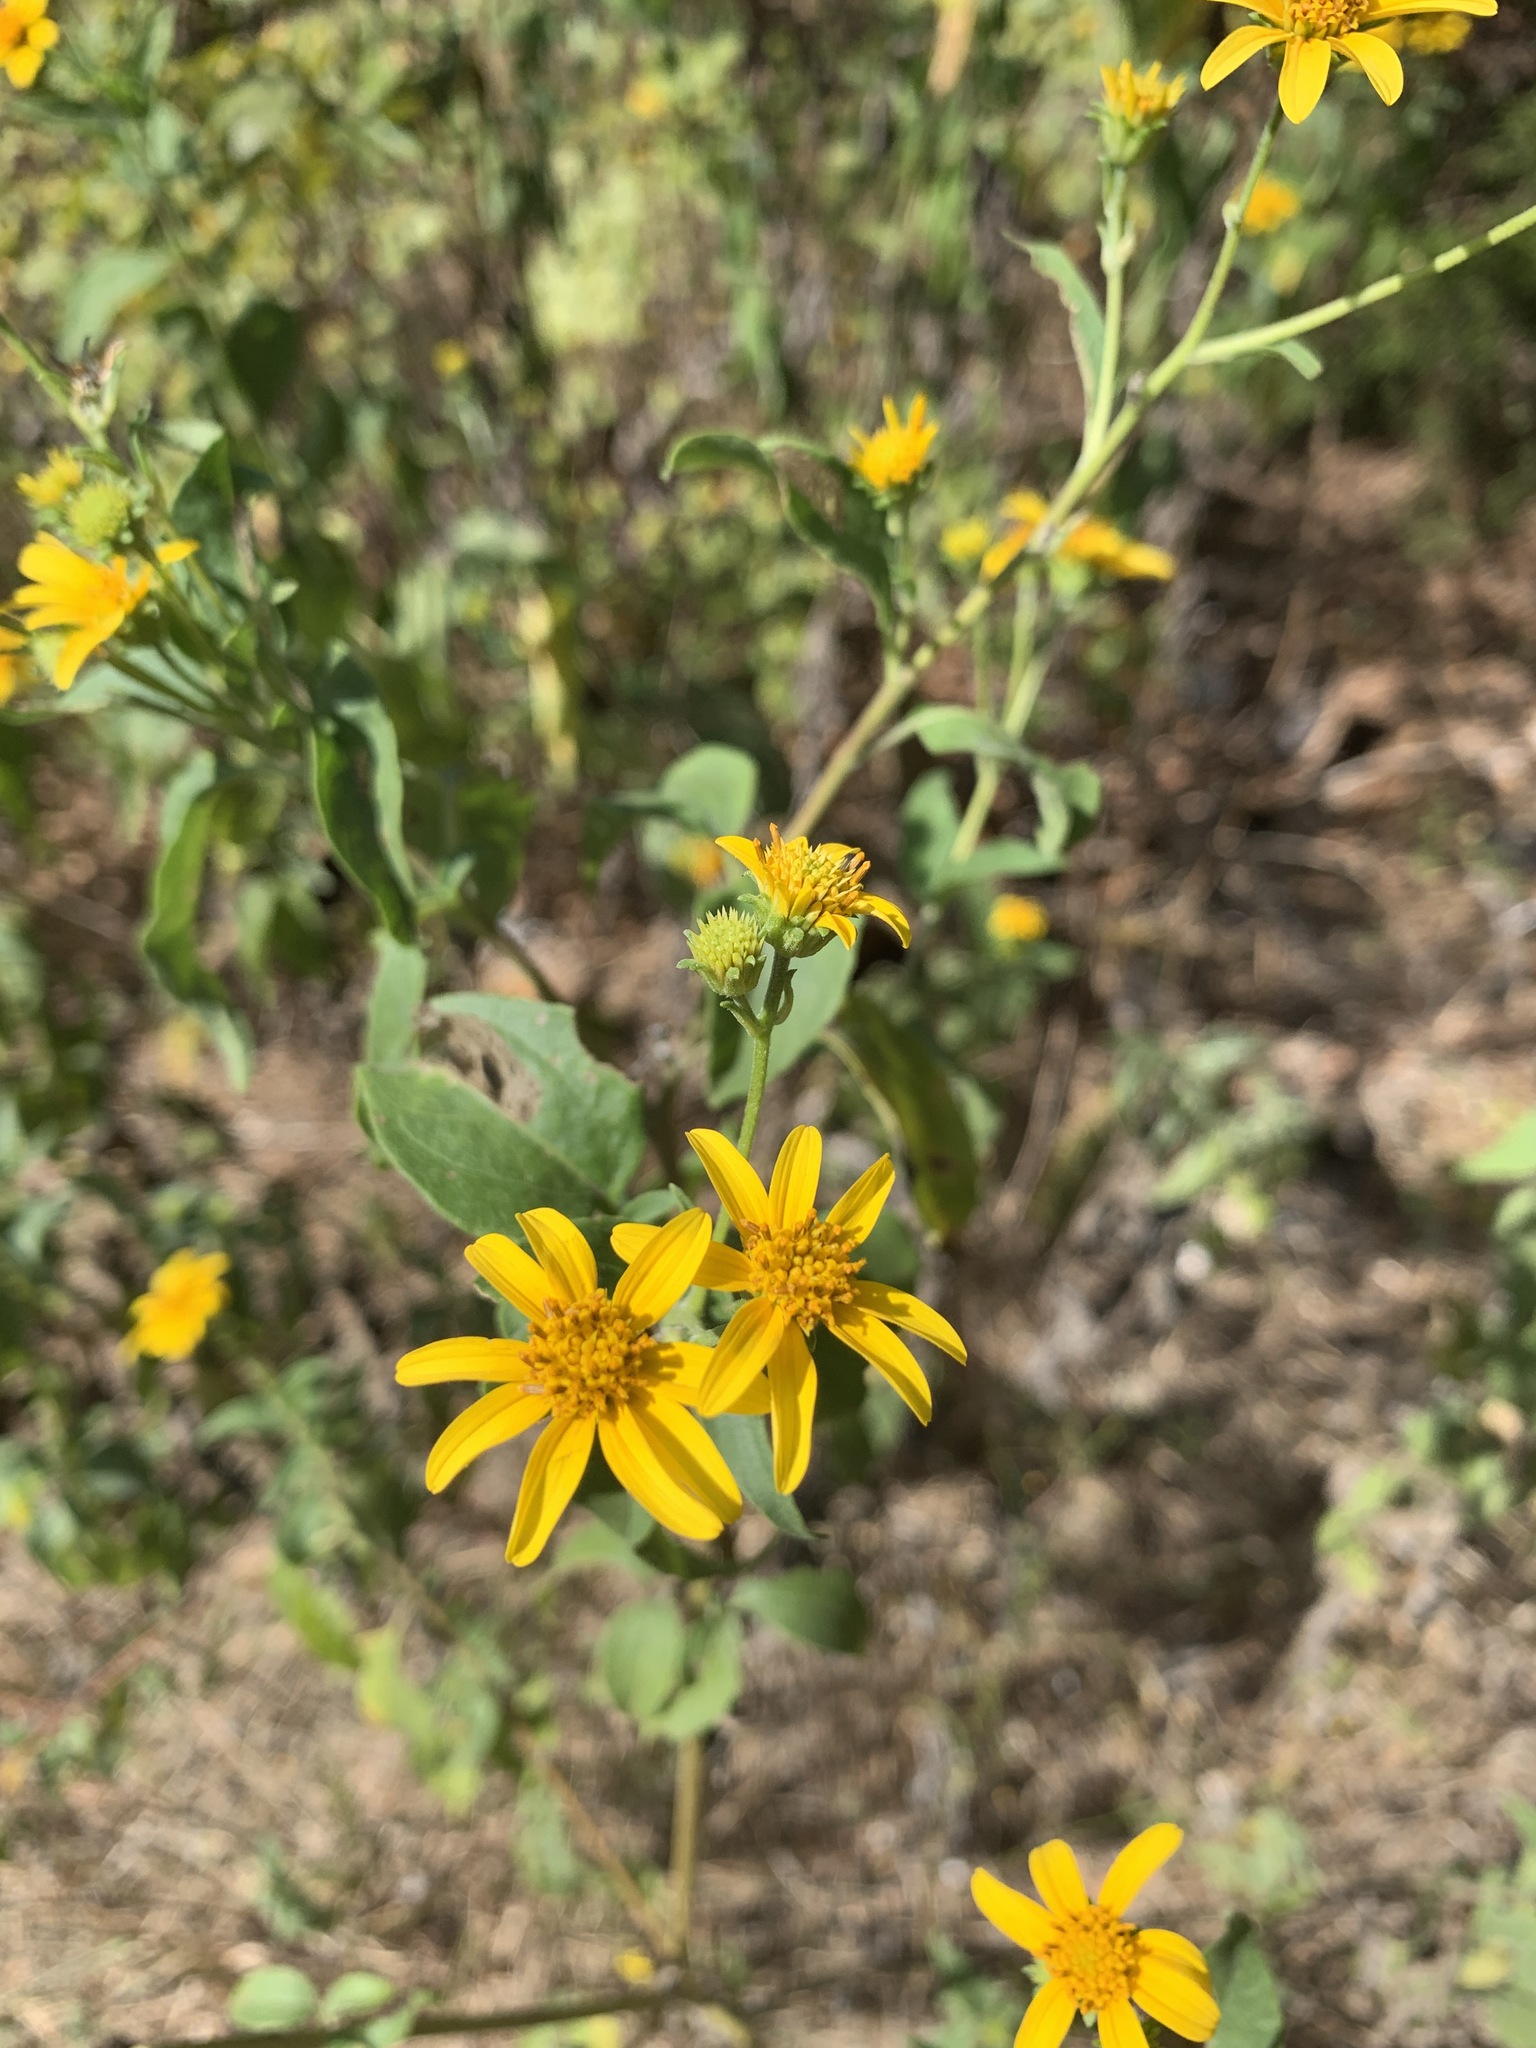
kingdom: Plantae
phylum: Tracheophyta
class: Magnoliopsida
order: Asterales
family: Asteraceae
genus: Viguiera
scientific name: Viguiera dentata
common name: Toothleaf
